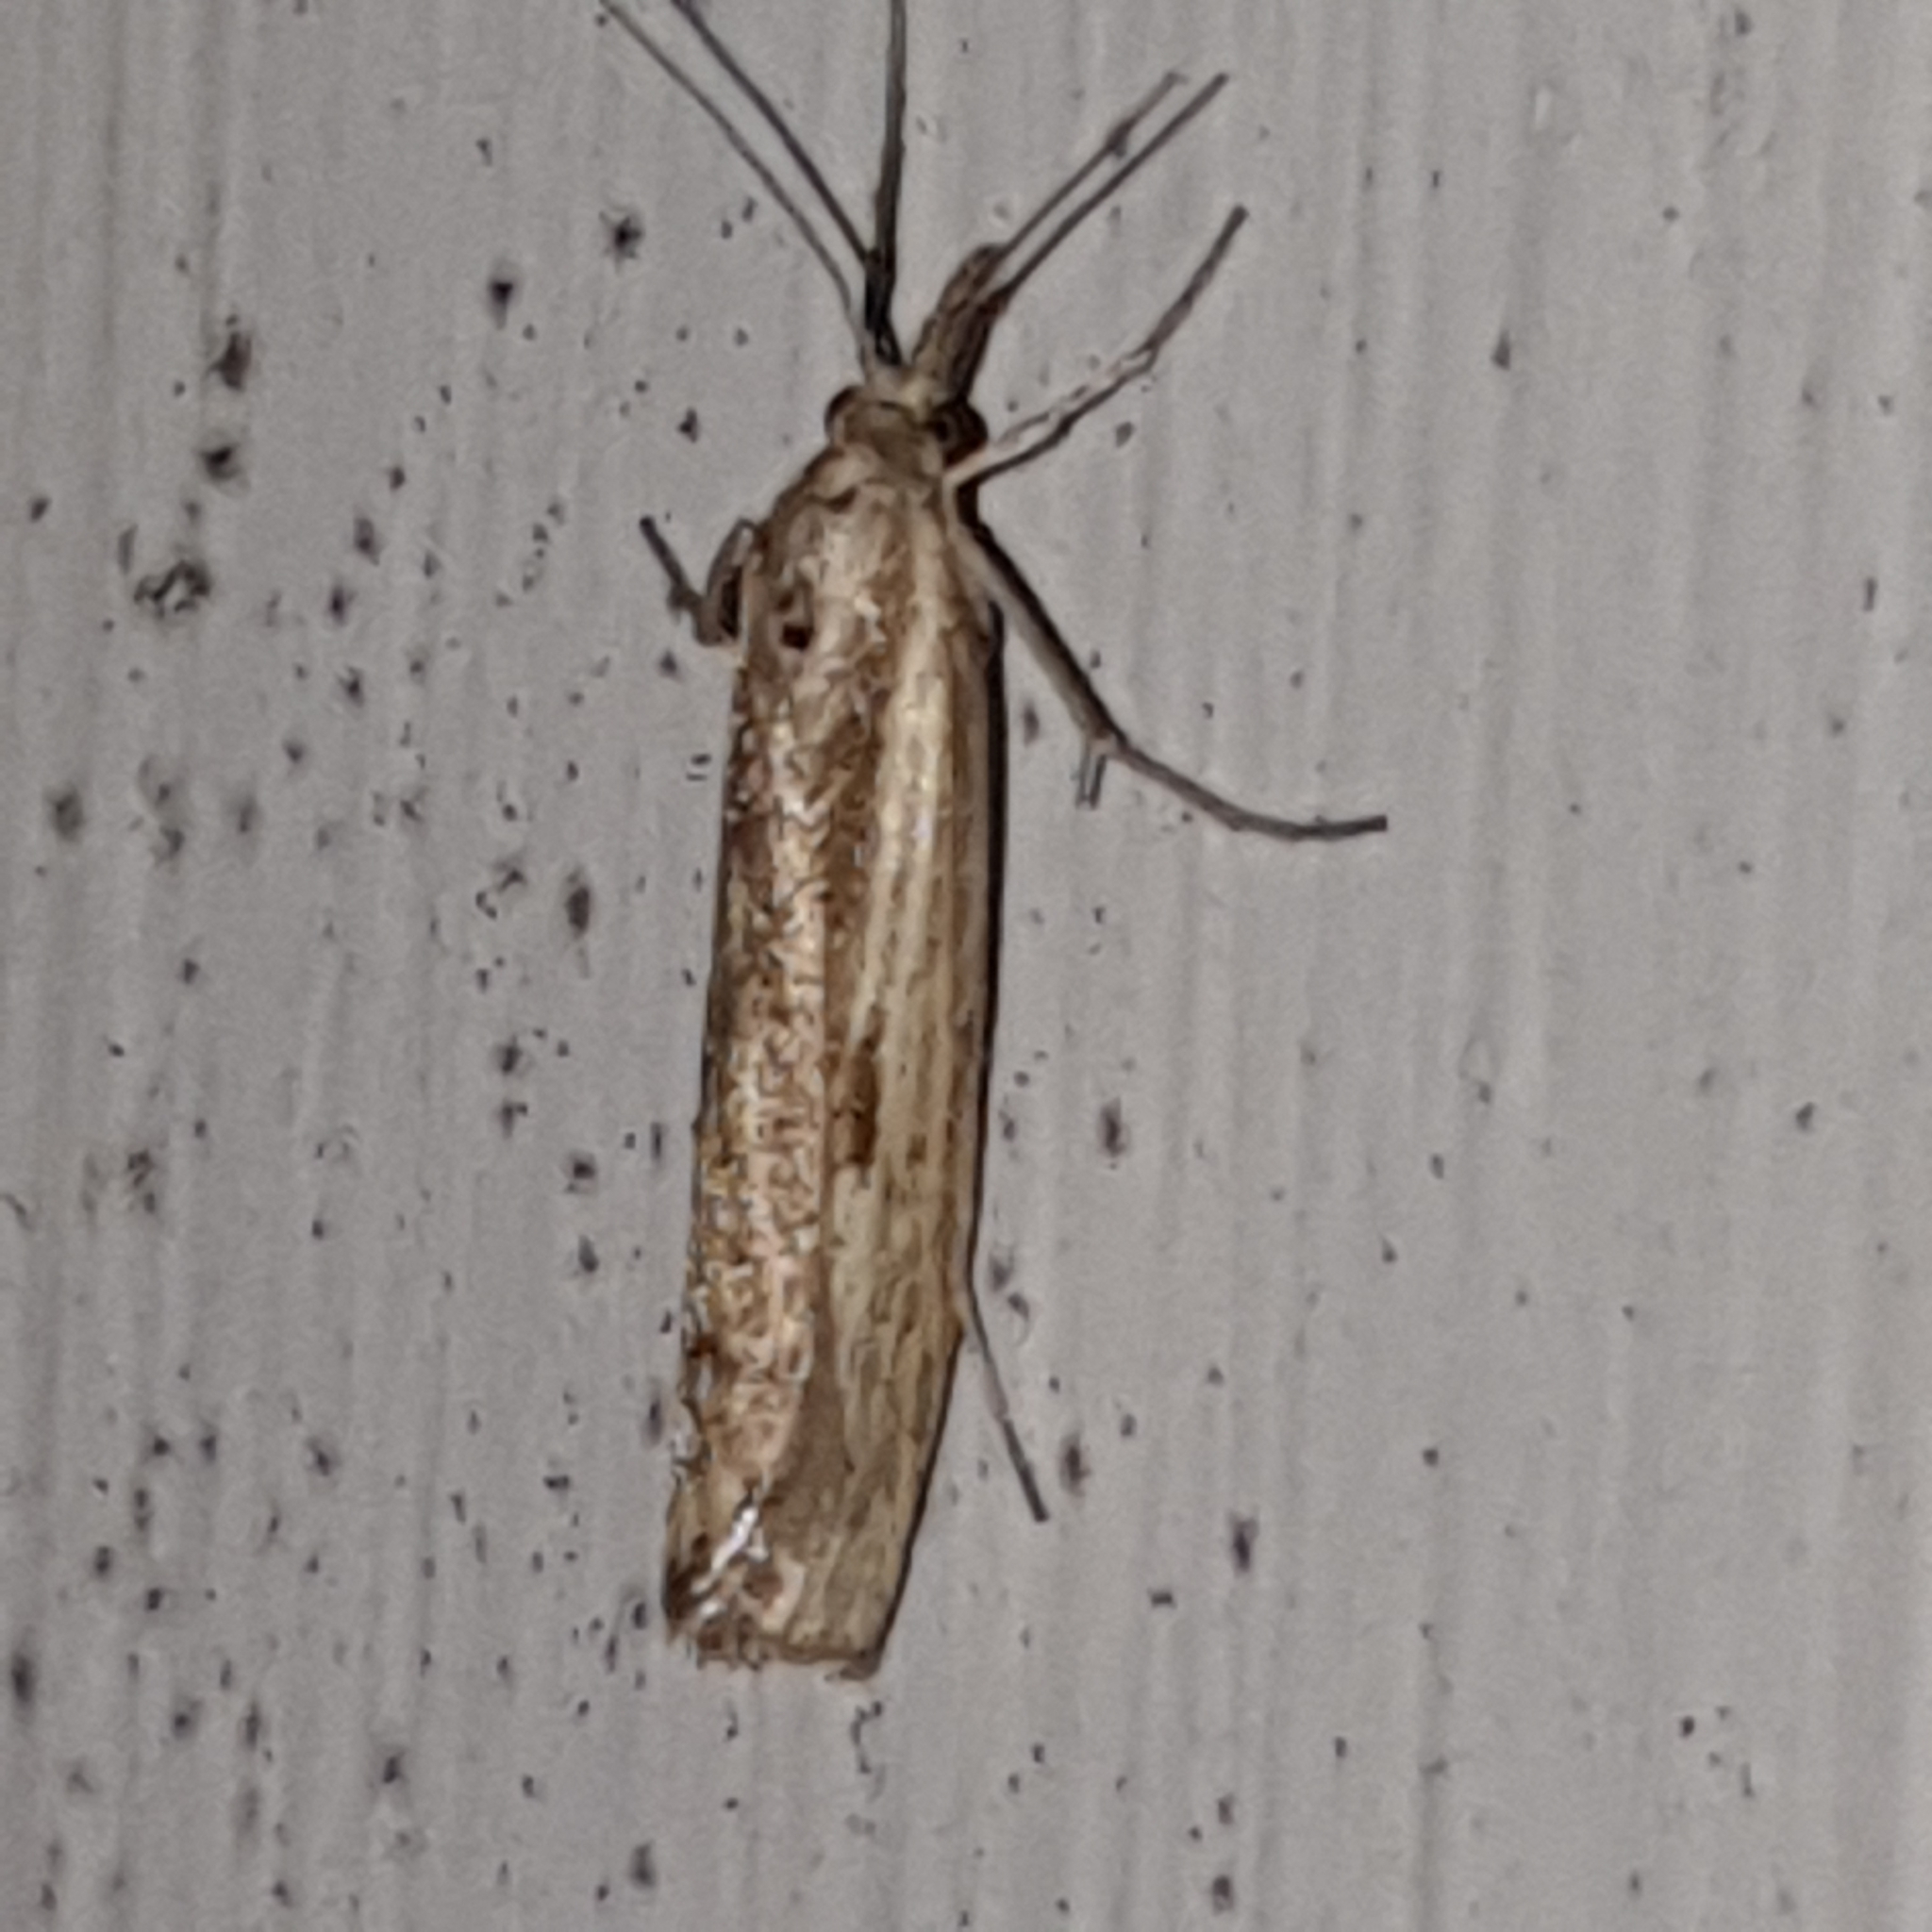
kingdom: Animalia
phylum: Arthropoda
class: Insecta
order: Lepidoptera
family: Crambidae
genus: Agriphila
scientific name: Agriphila inquinatella
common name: Barred grass-veneer
